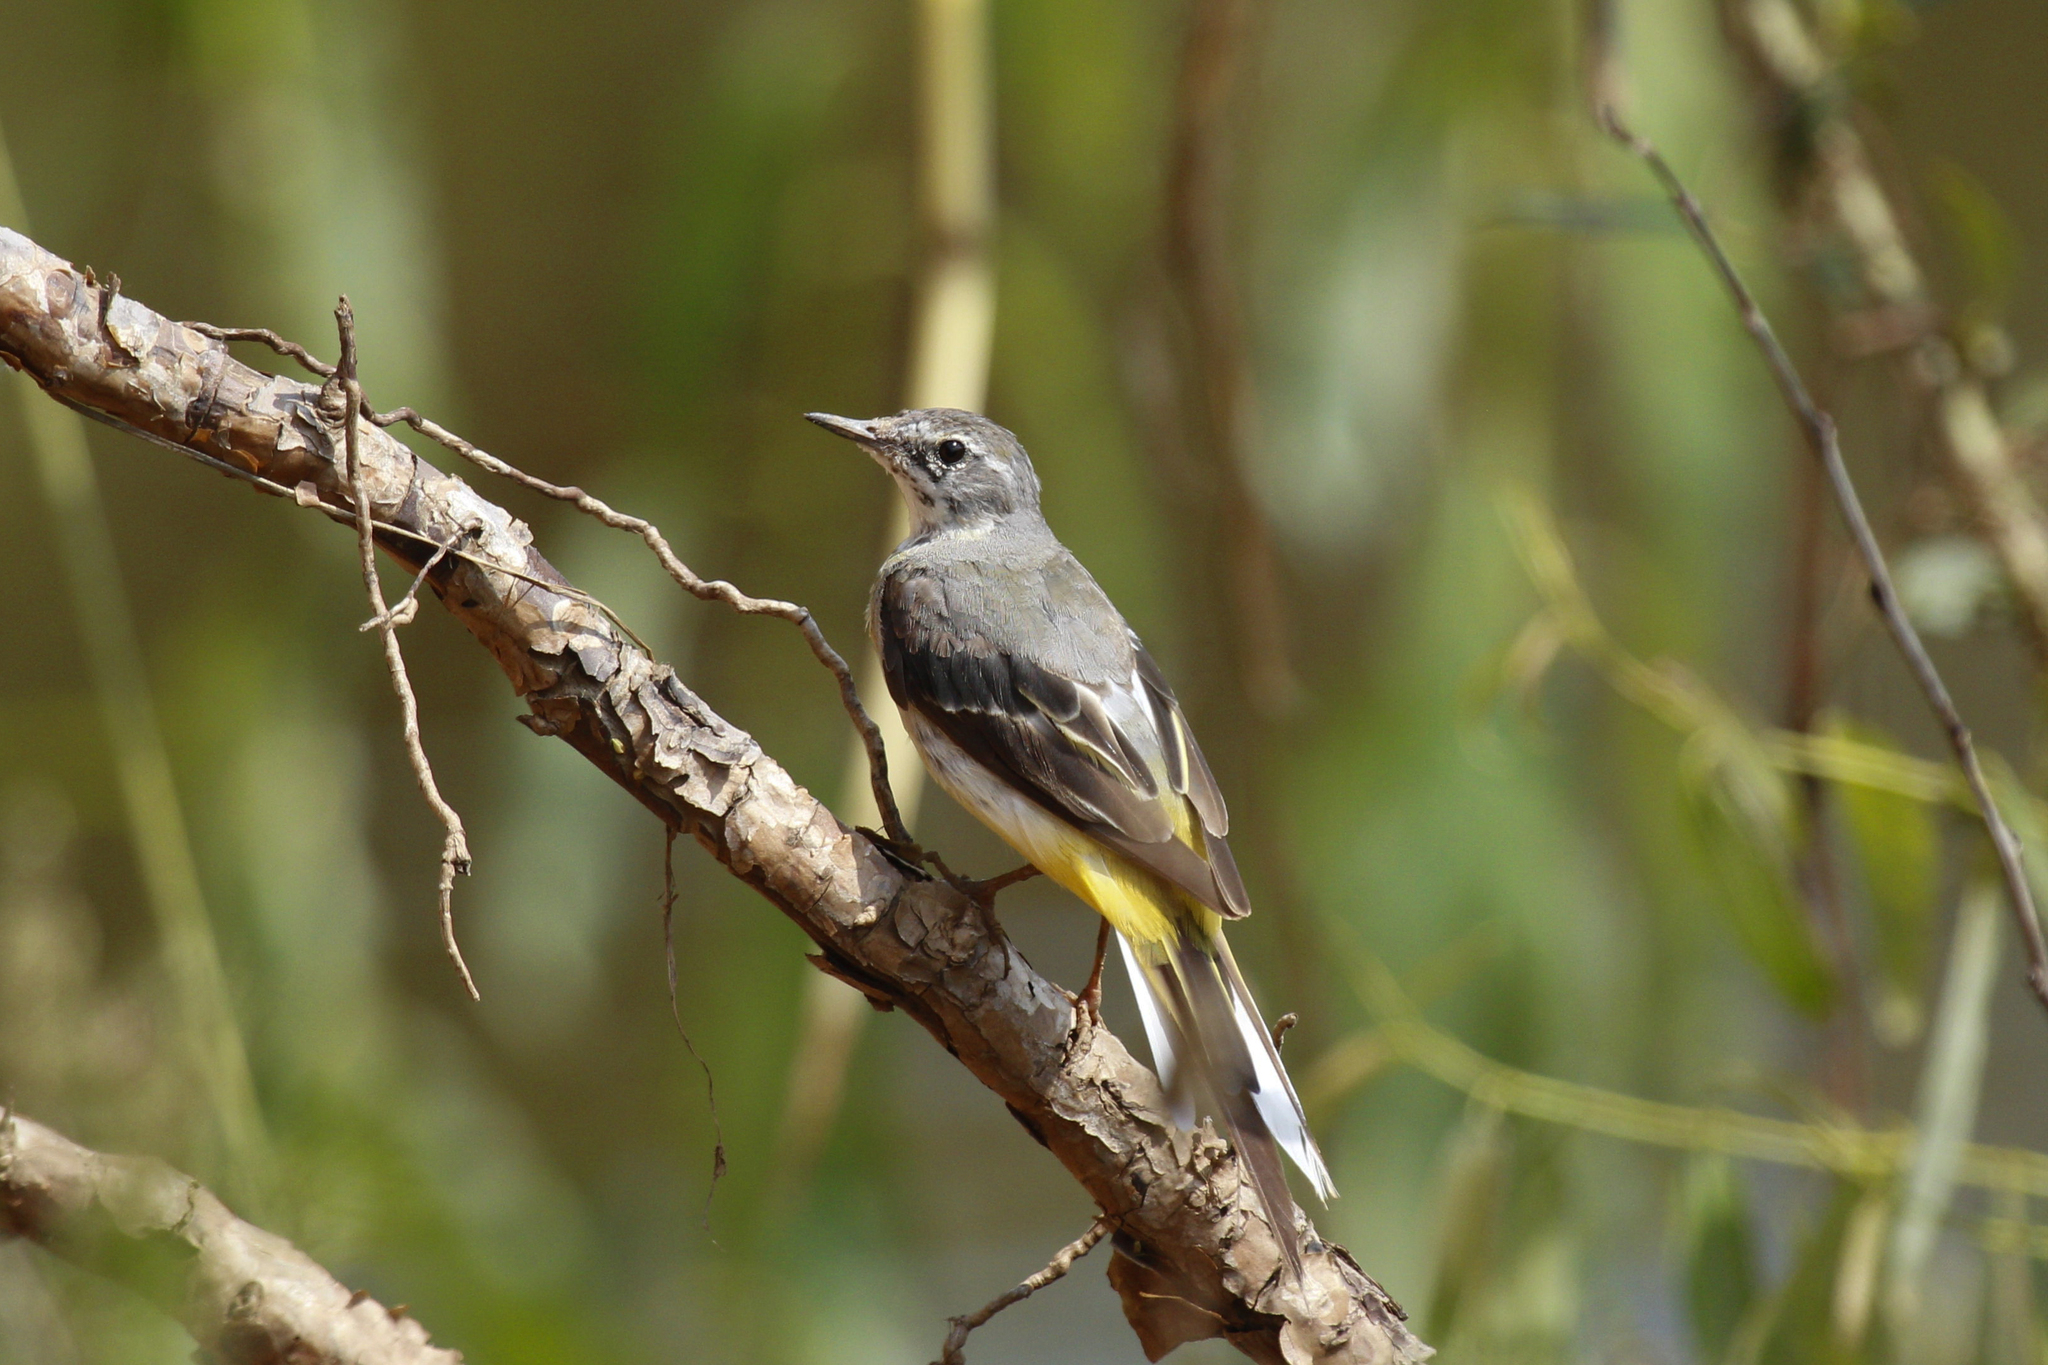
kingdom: Animalia
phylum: Chordata
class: Aves
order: Passeriformes
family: Motacillidae
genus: Motacilla
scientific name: Motacilla cinerea
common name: Grey wagtail
